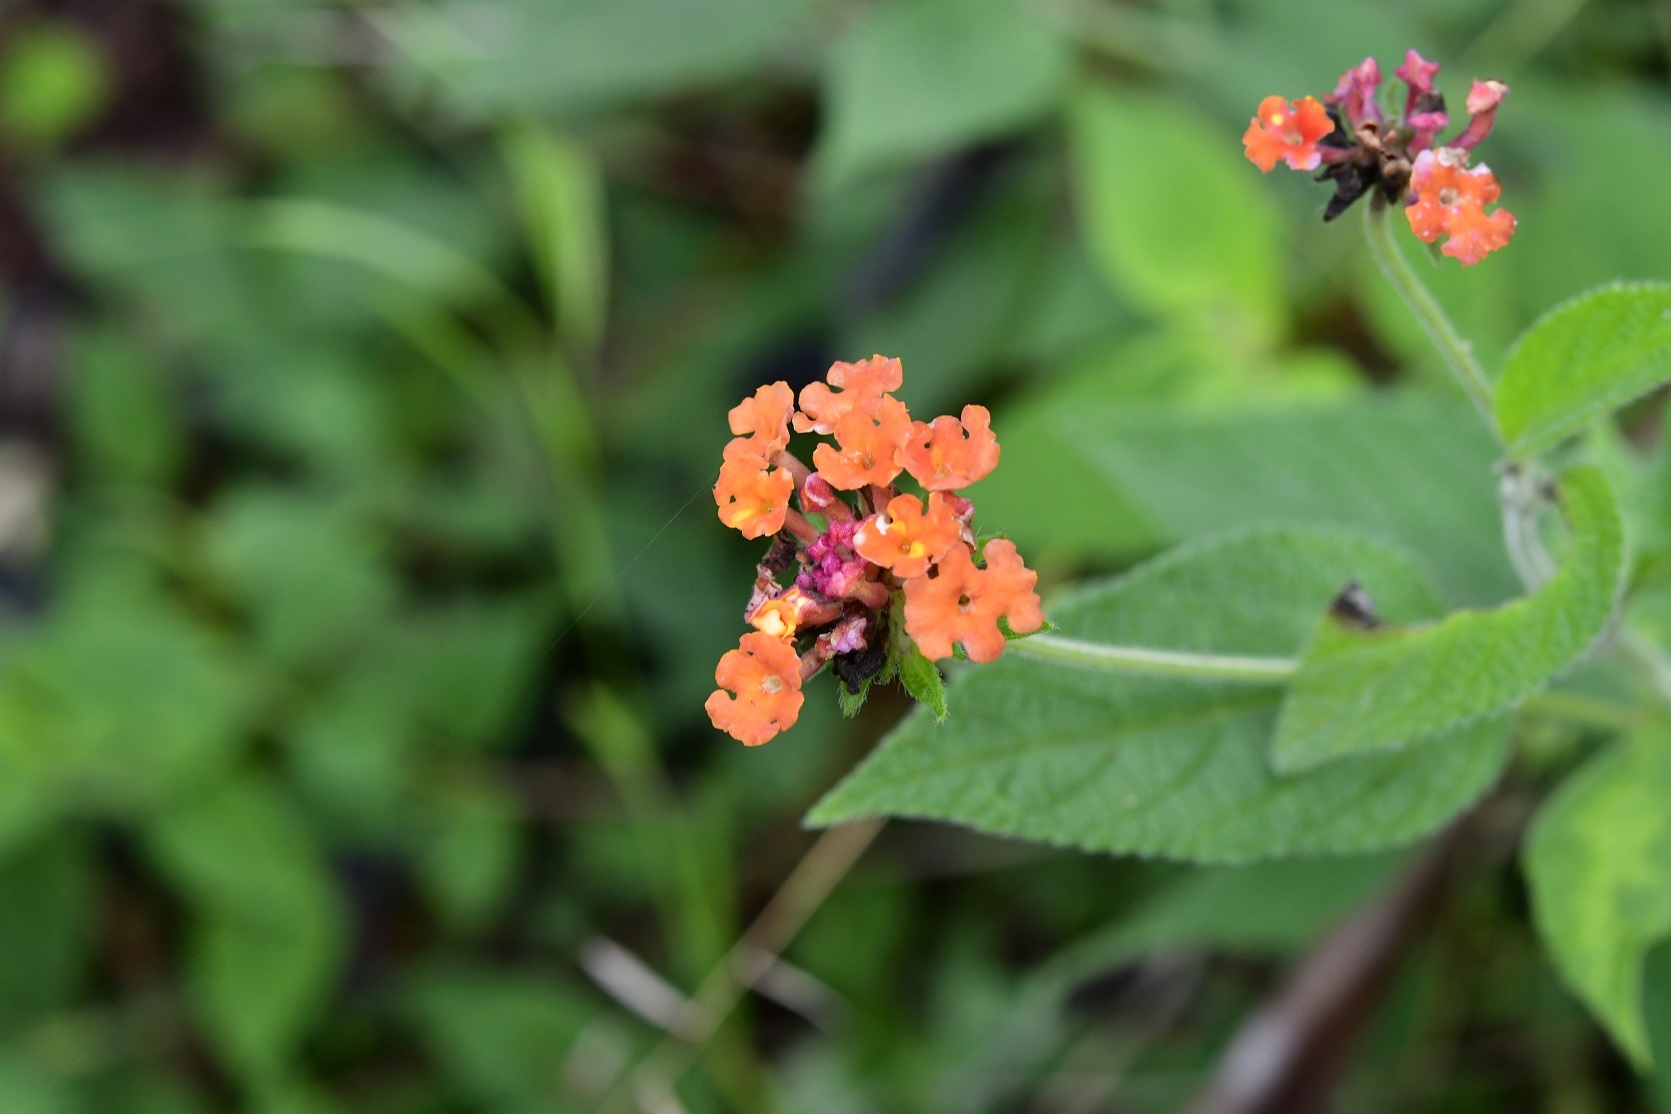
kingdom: Plantae
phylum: Tracheophyta
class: Magnoliopsida
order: Lamiales
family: Verbenaceae
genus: Lantana
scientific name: Lantana horrida
